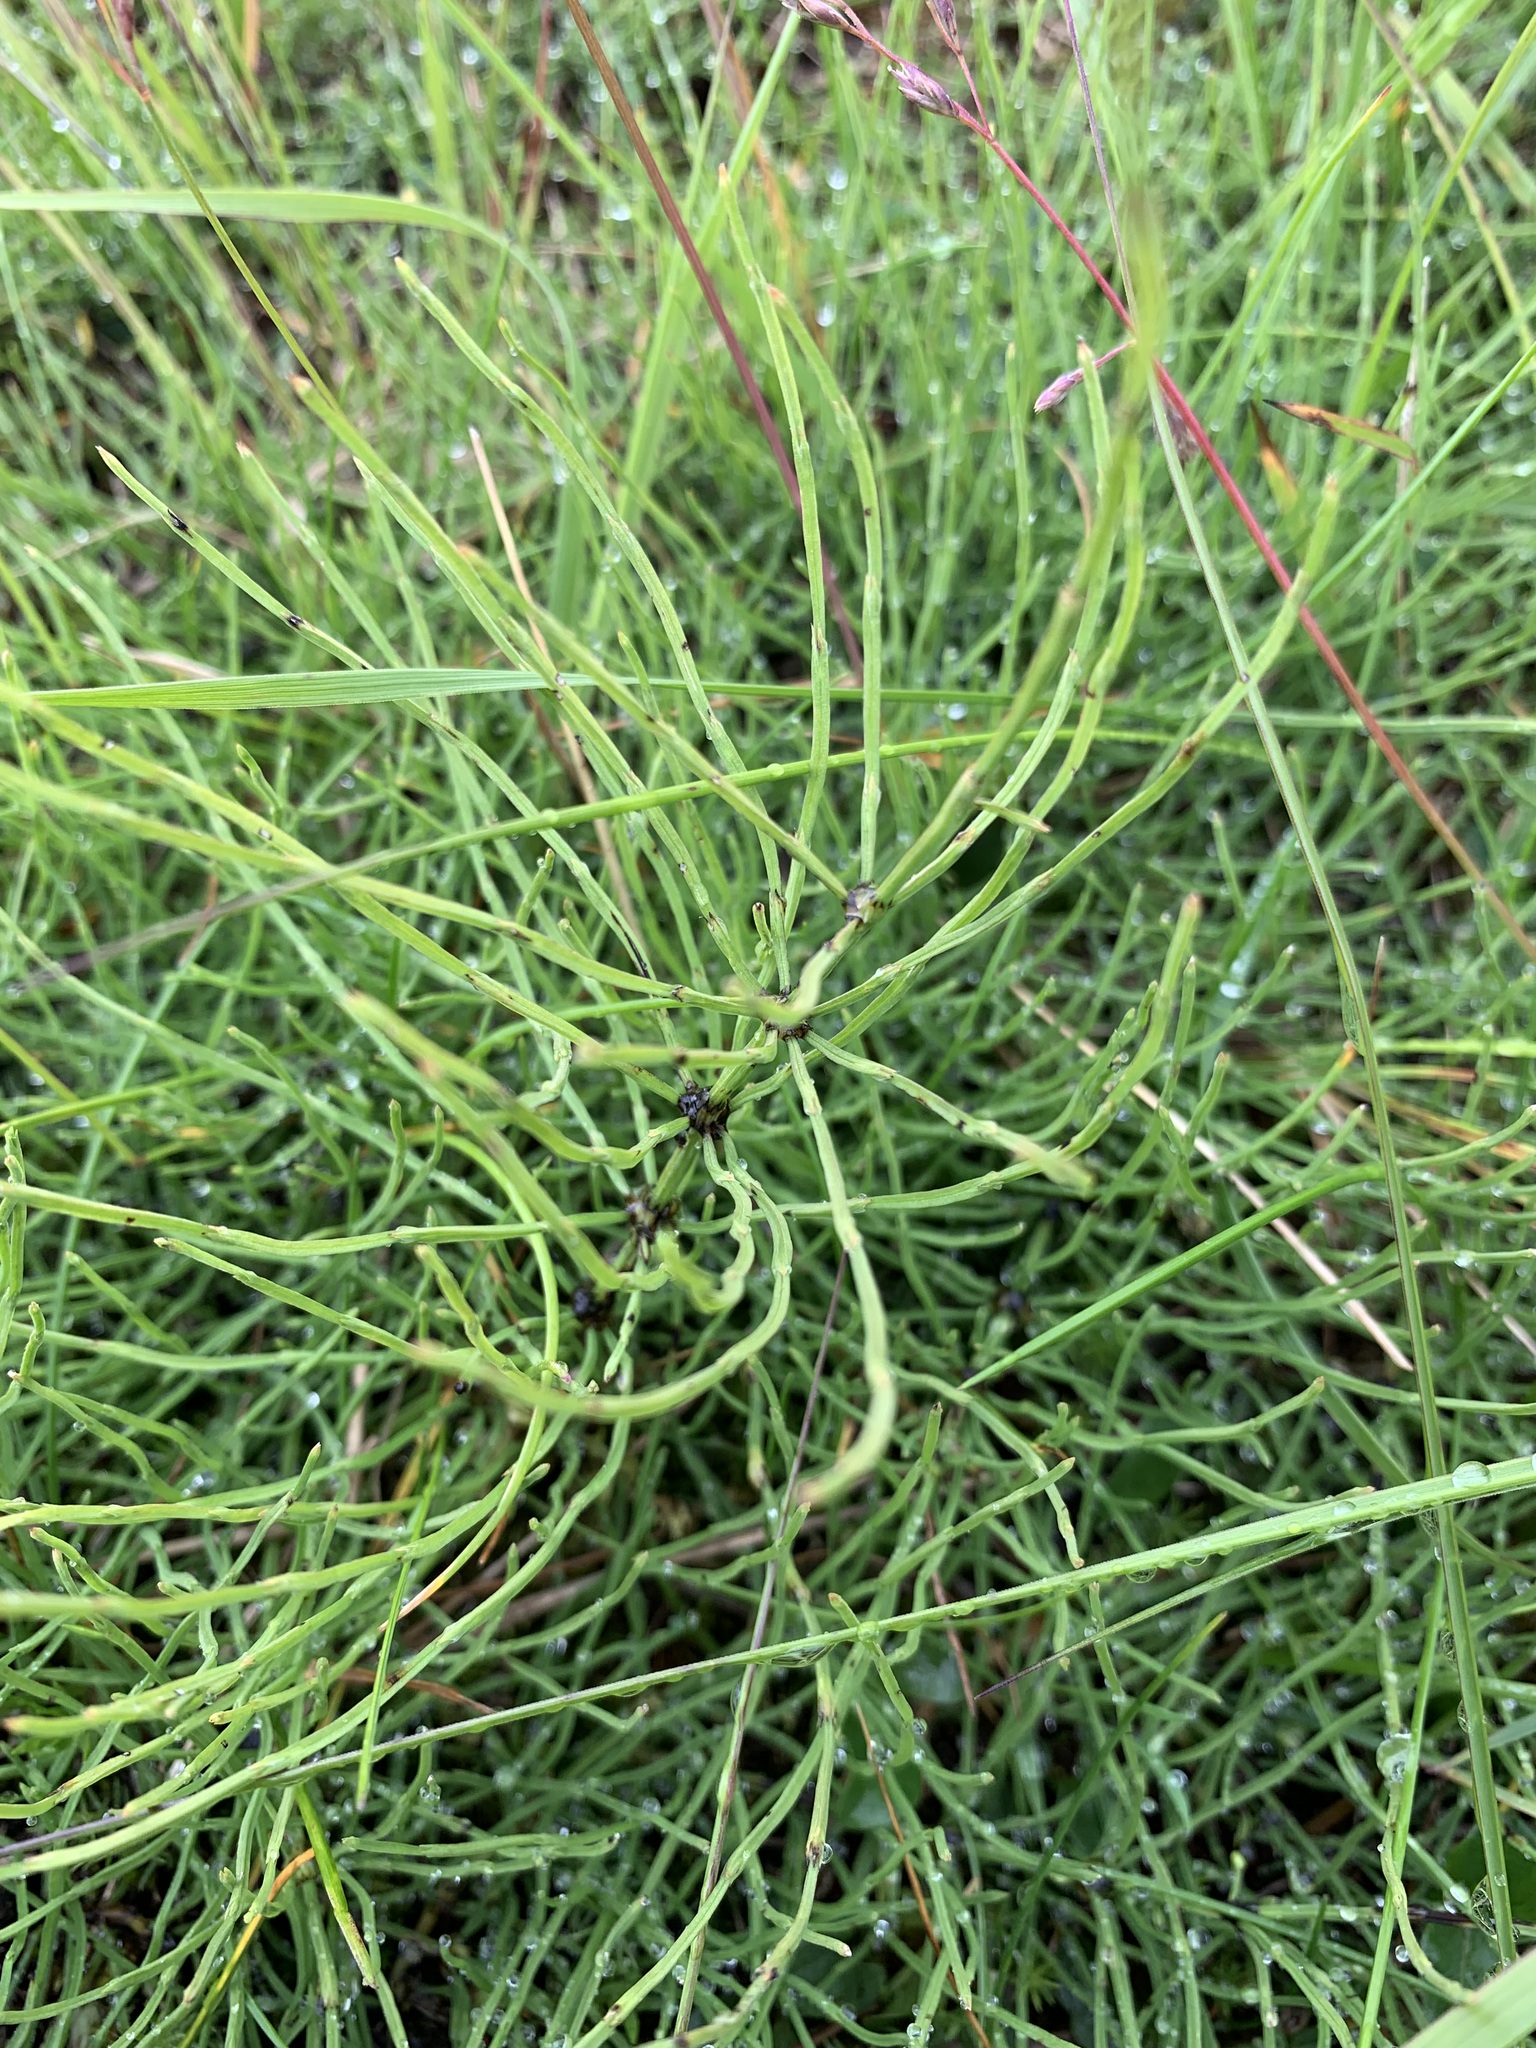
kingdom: Plantae
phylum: Tracheophyta
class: Polypodiopsida
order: Equisetales
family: Equisetaceae
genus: Equisetum
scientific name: Equisetum arvense
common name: Field horsetail
